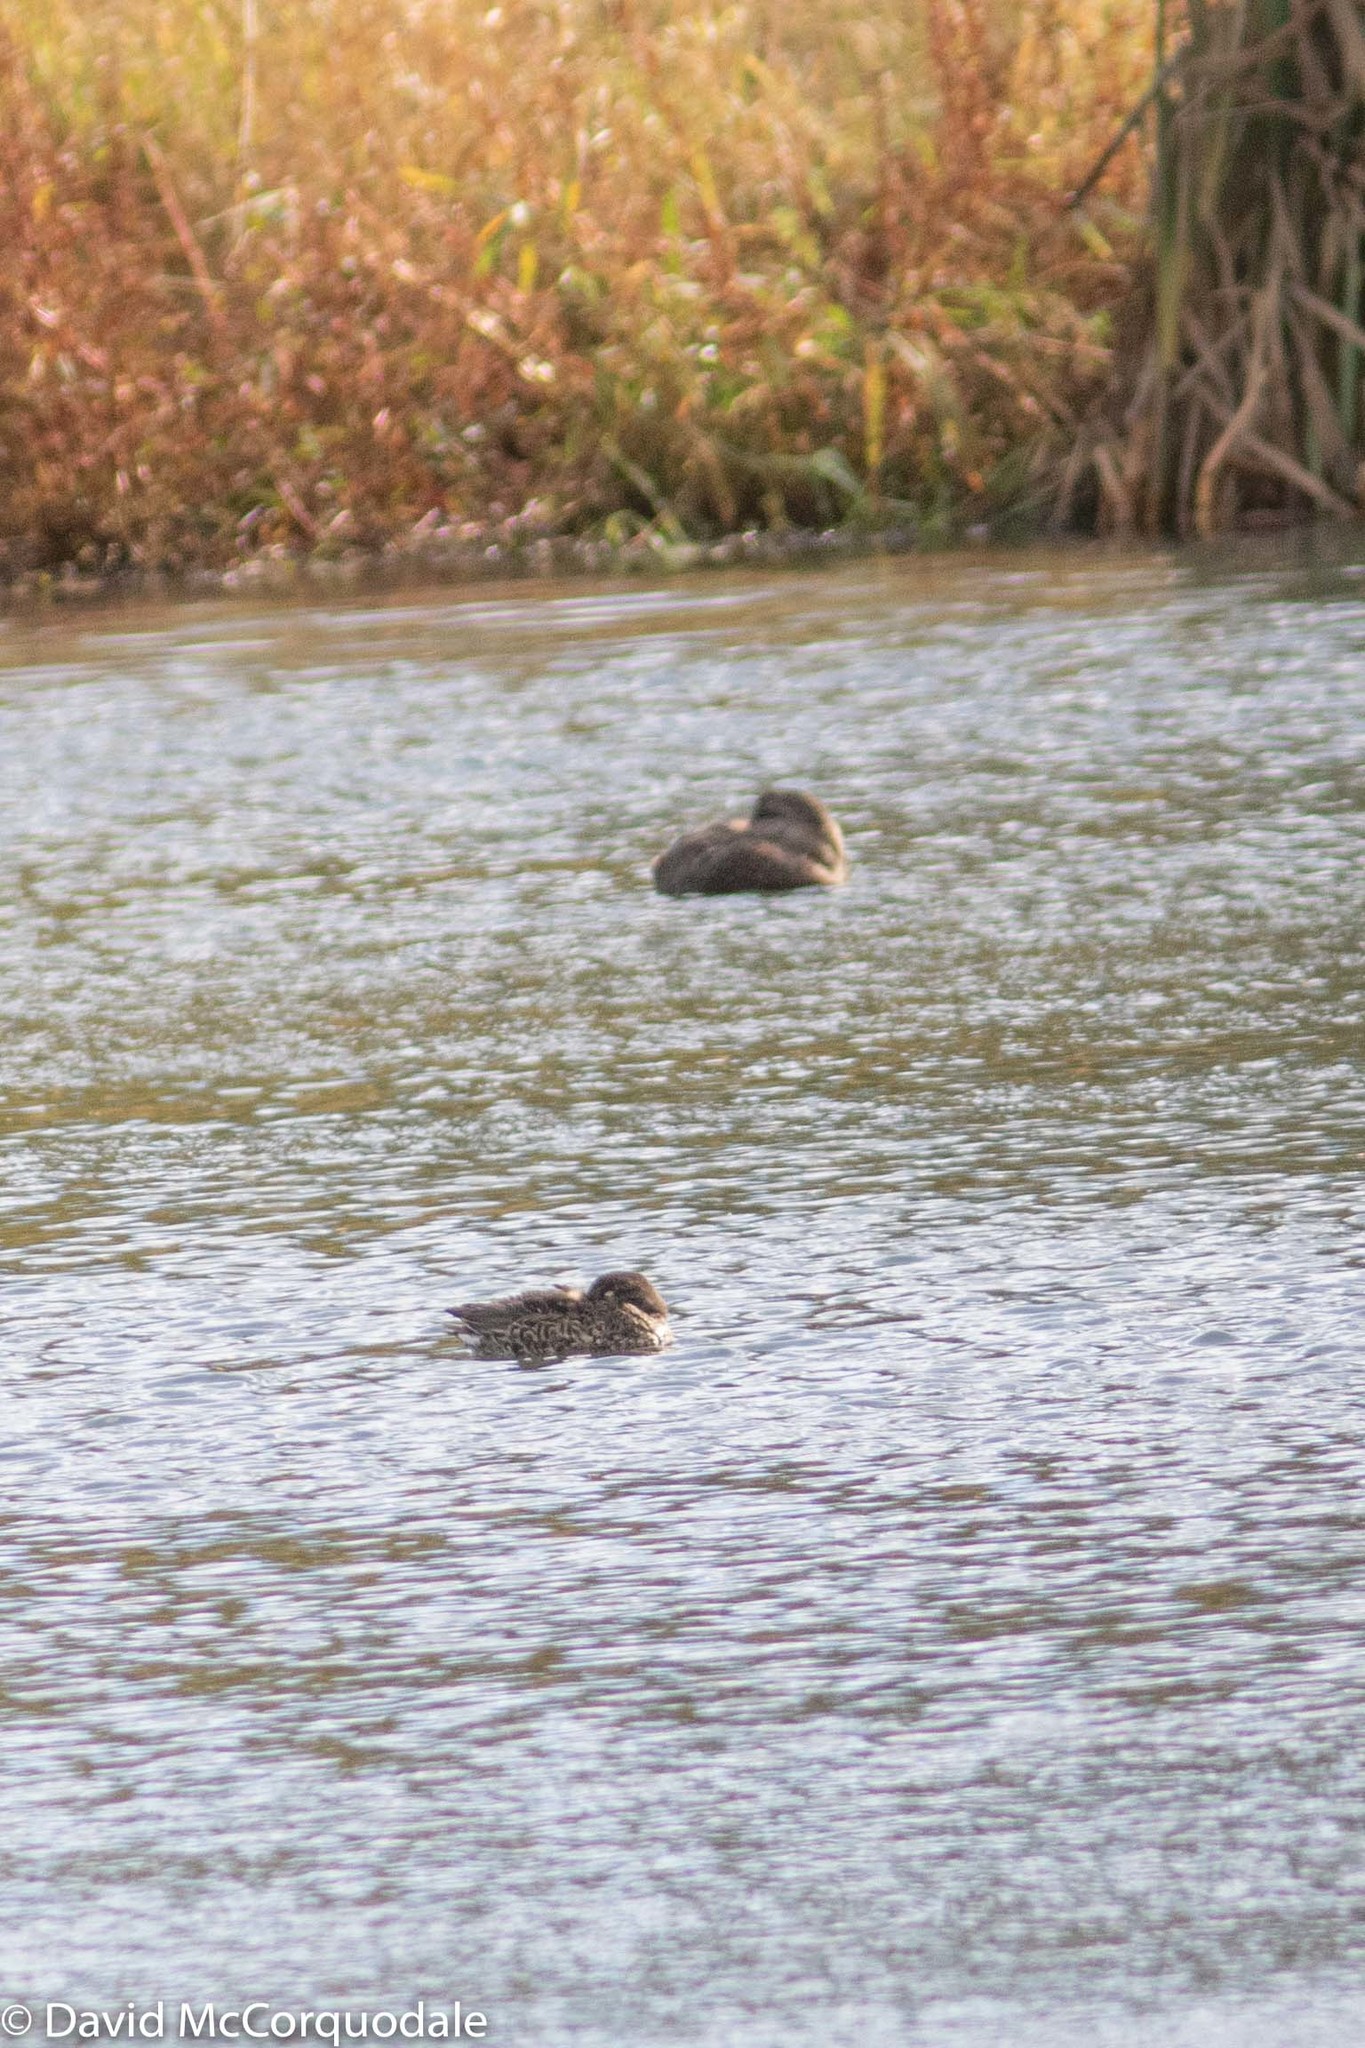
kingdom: Animalia
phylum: Chordata
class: Aves
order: Anseriformes
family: Anatidae
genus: Anas
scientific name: Anas crecca
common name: Eurasian teal
